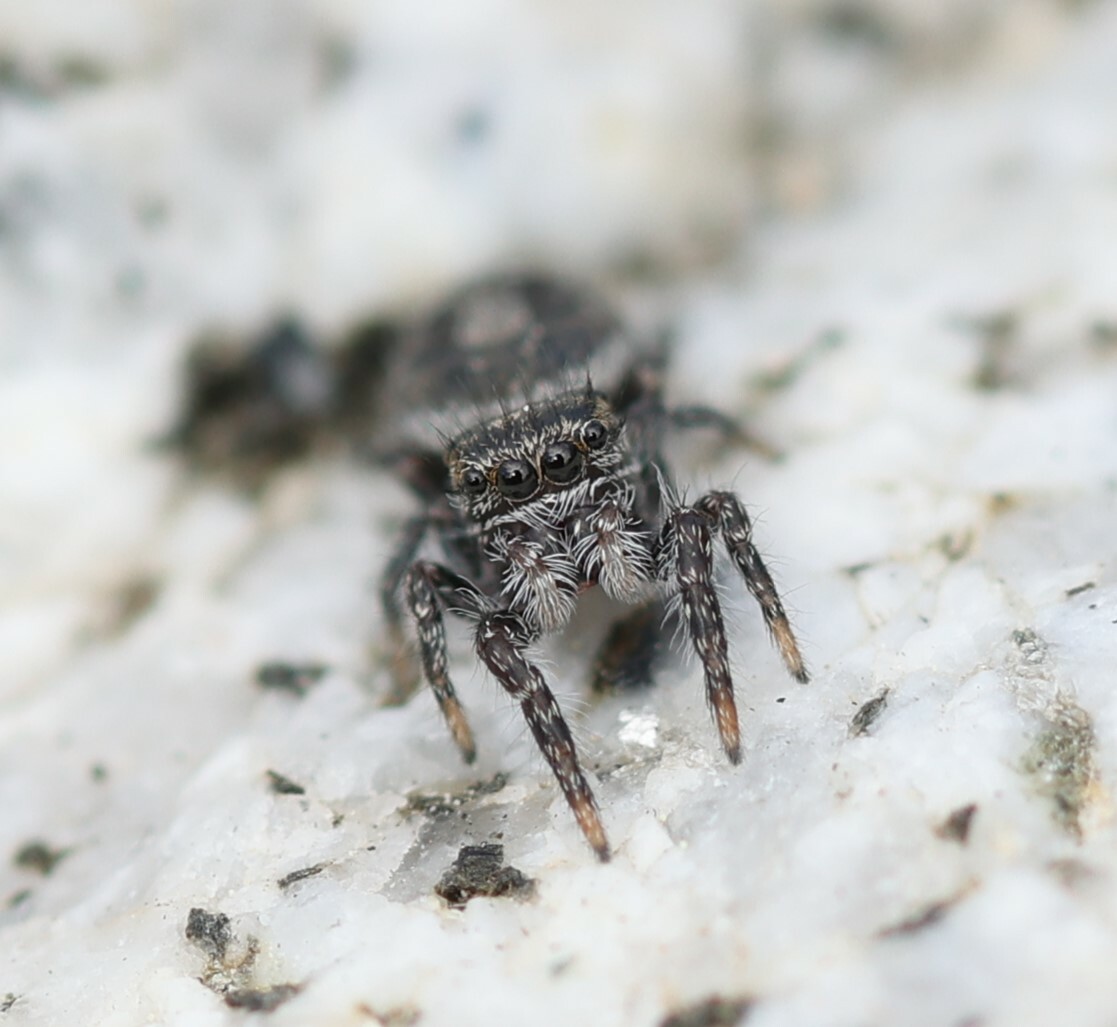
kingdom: Animalia
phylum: Arthropoda
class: Arachnida
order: Araneae
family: Salticidae
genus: Phidippus
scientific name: Phidippus comatus
